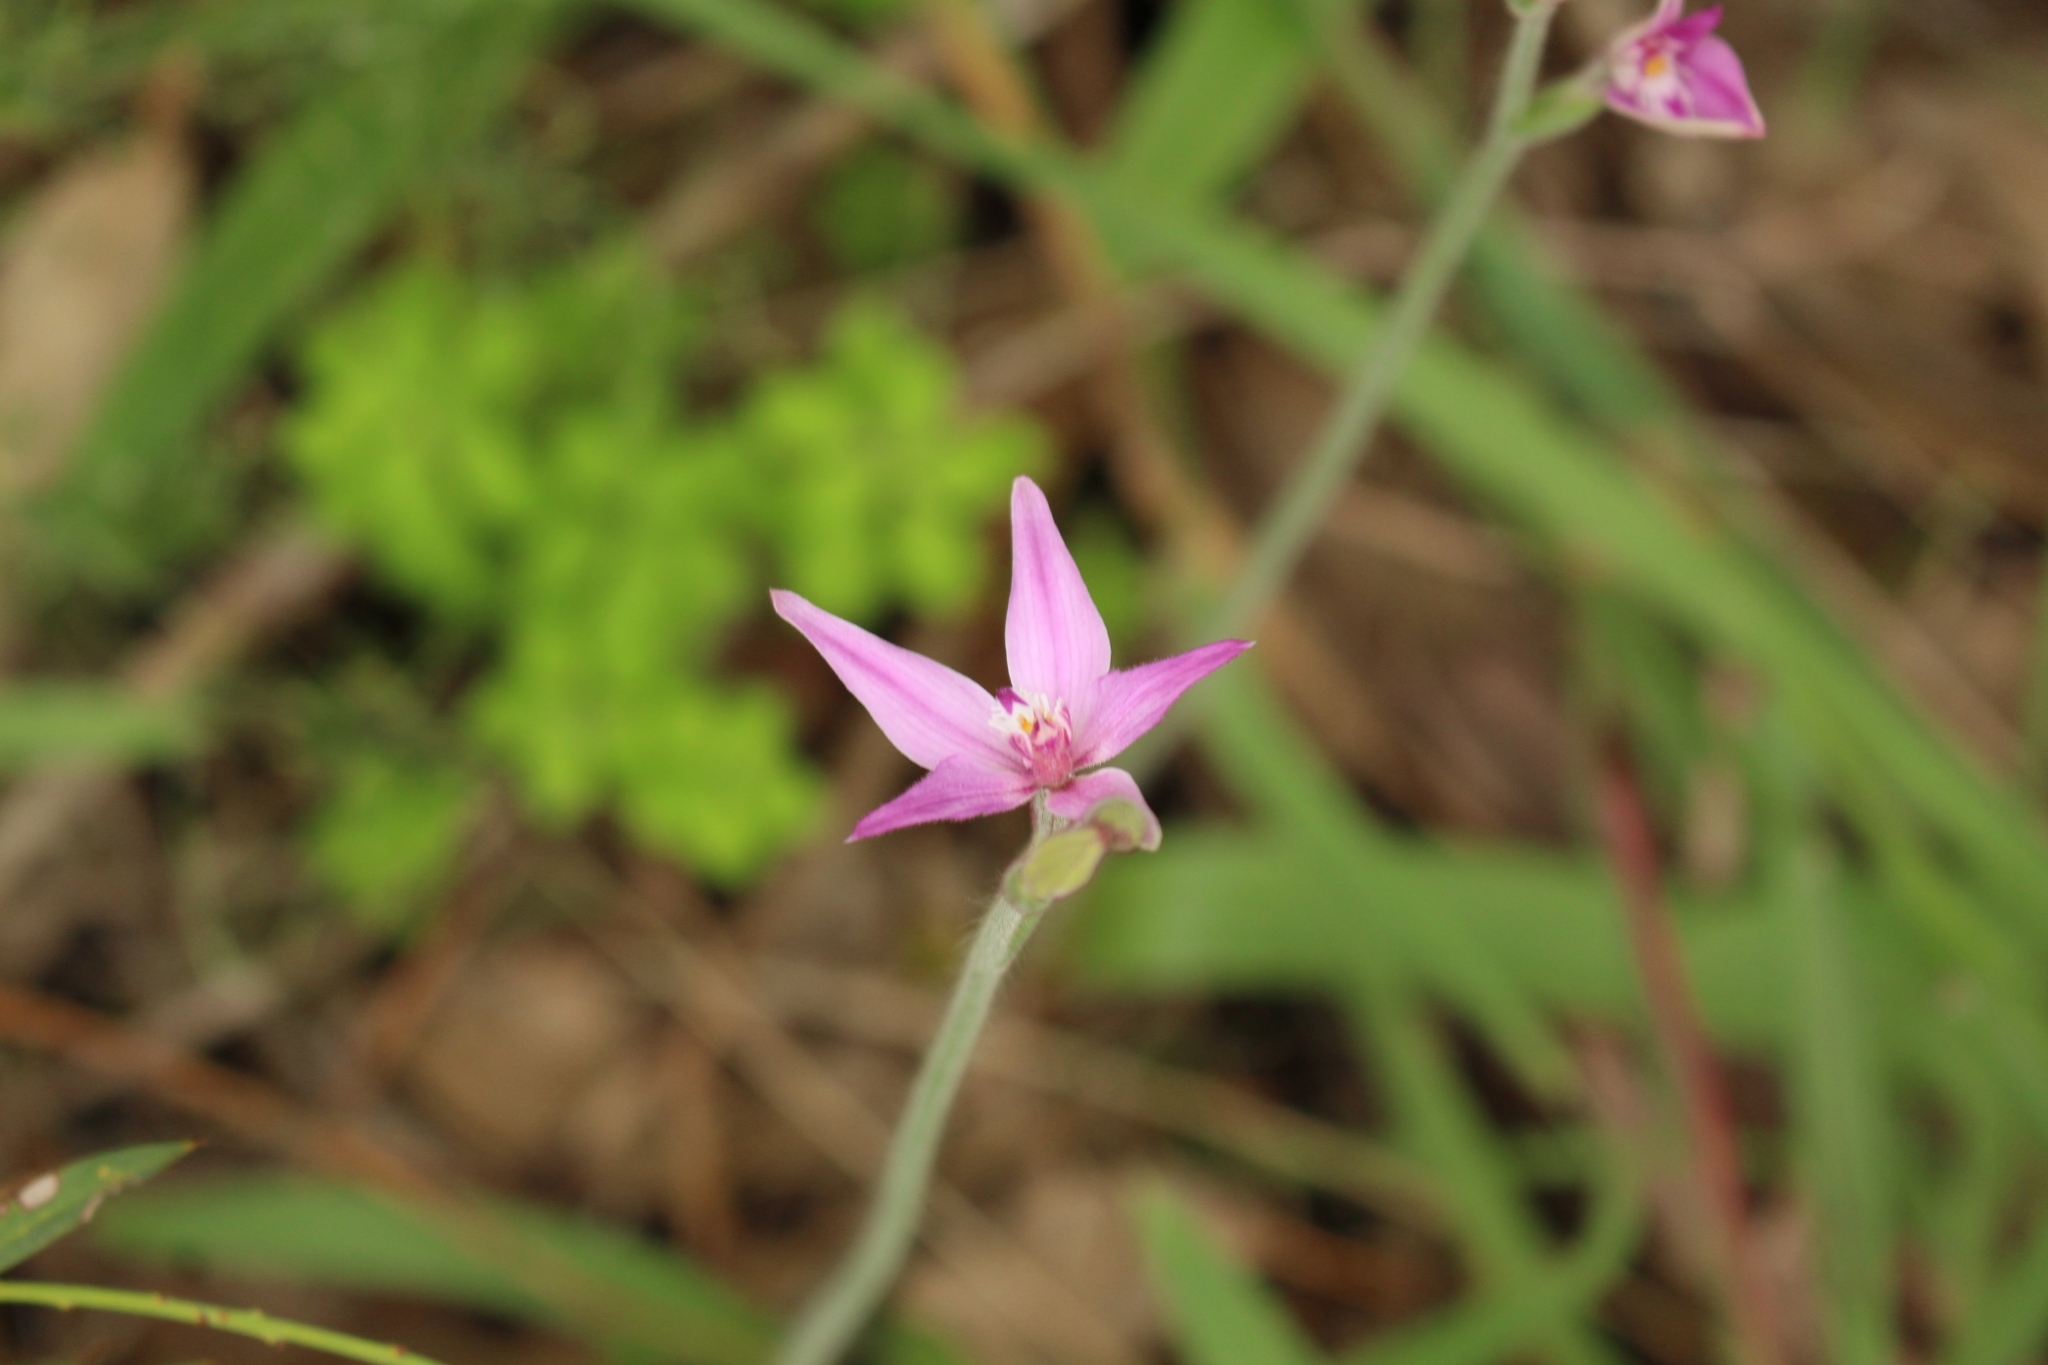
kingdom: Plantae
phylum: Tracheophyta
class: Liliopsida
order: Asparagales
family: Orchidaceae
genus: Caladenia
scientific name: Caladenia latifolia
